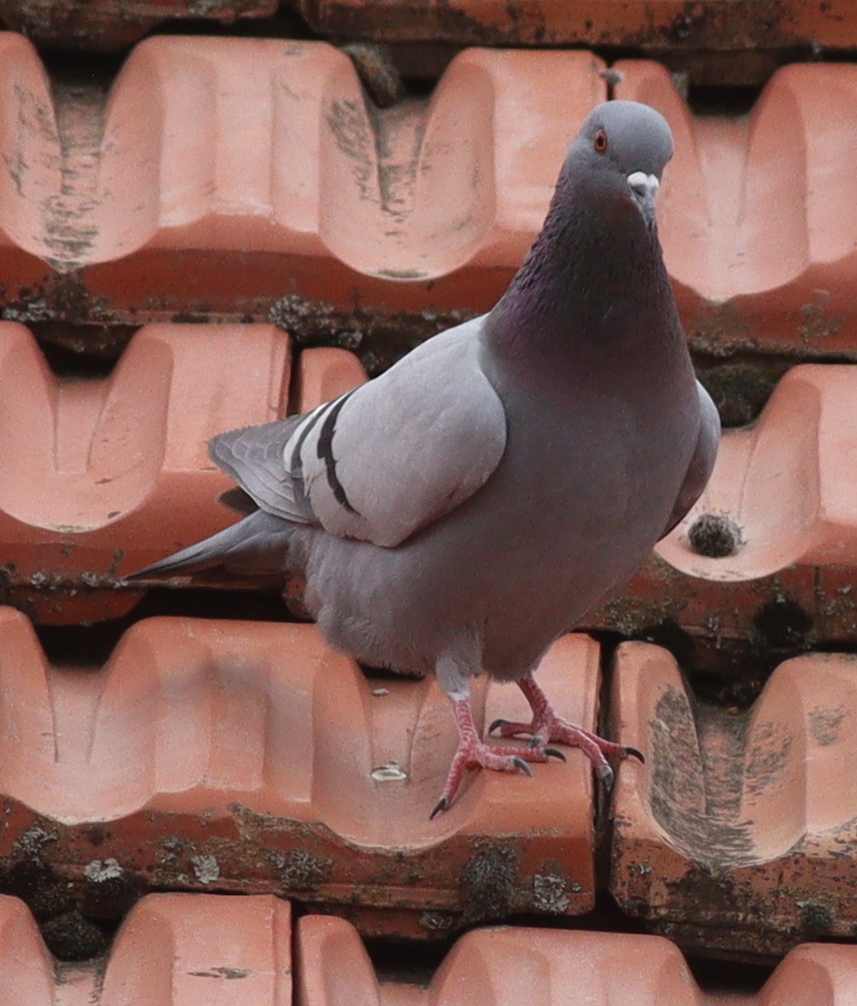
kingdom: Animalia
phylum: Chordata
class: Aves
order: Columbiformes
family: Columbidae
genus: Columba
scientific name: Columba livia
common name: Rock pigeon
